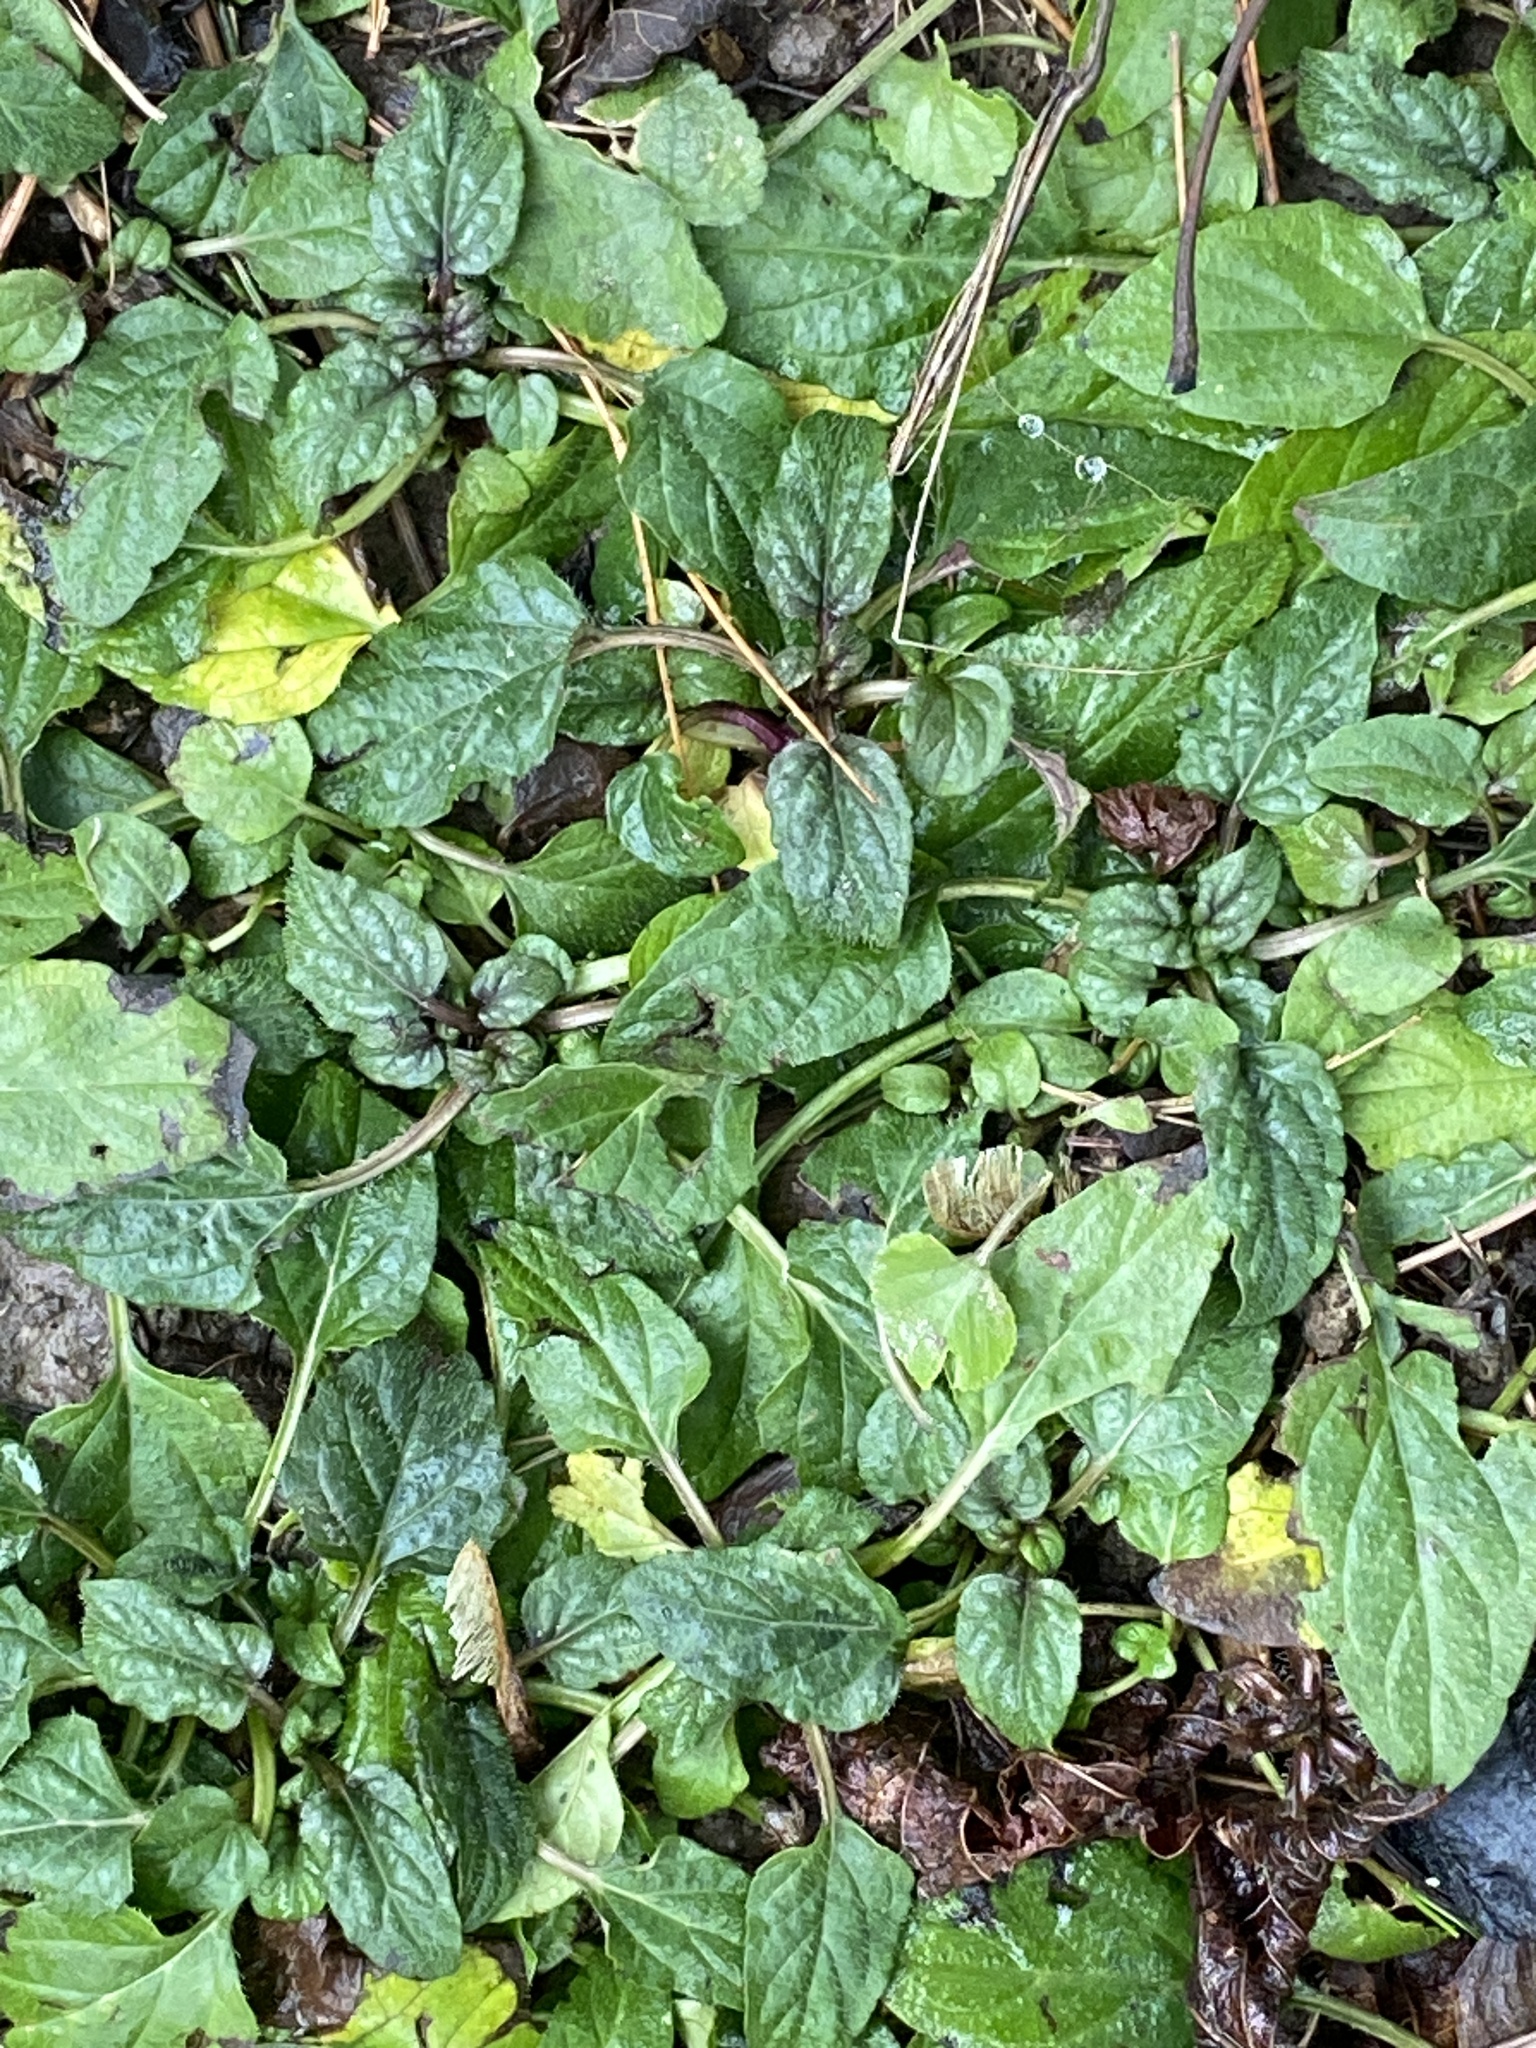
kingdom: Plantae
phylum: Tracheophyta
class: Magnoliopsida
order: Lamiales
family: Lamiaceae
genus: Prunella
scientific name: Prunella vulgaris
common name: Heal-all
